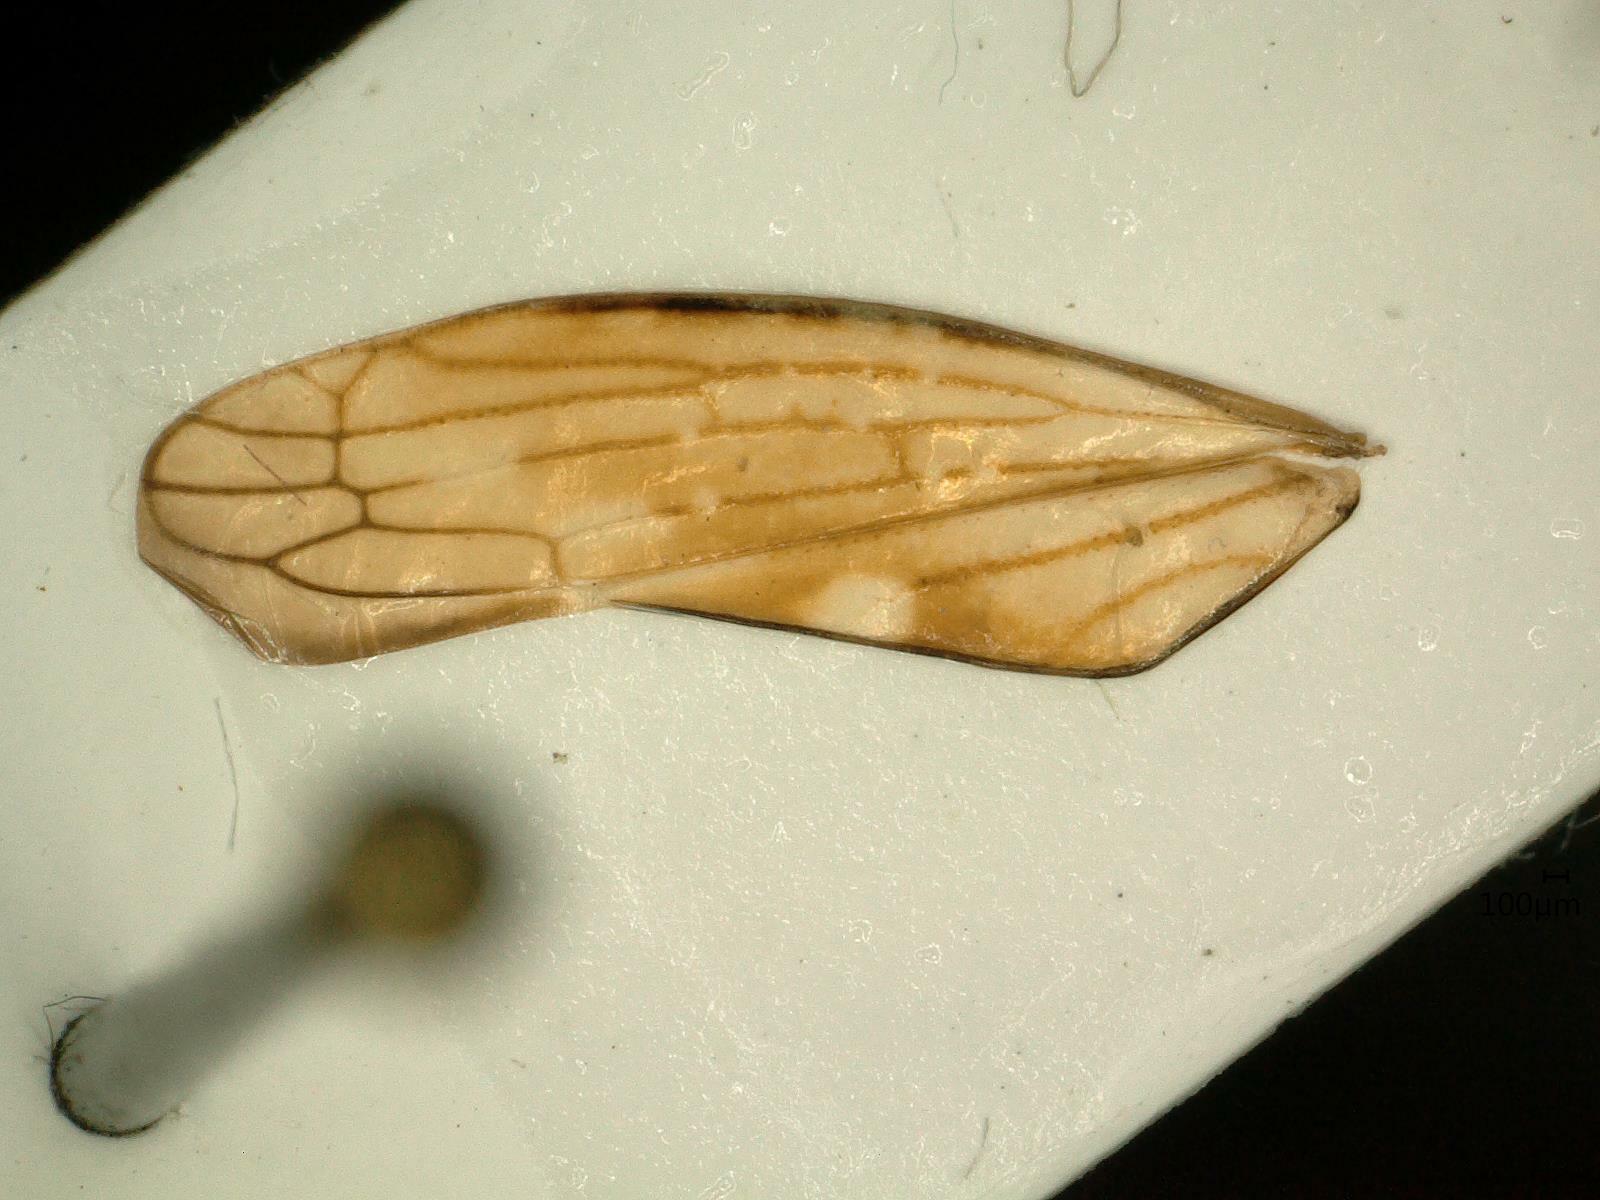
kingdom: Animalia
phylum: Arthropoda
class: Insecta
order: Hemiptera
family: Cicadellidae
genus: Idiocerus
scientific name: Idiocerus stigmaticalis
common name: Leafhopper
